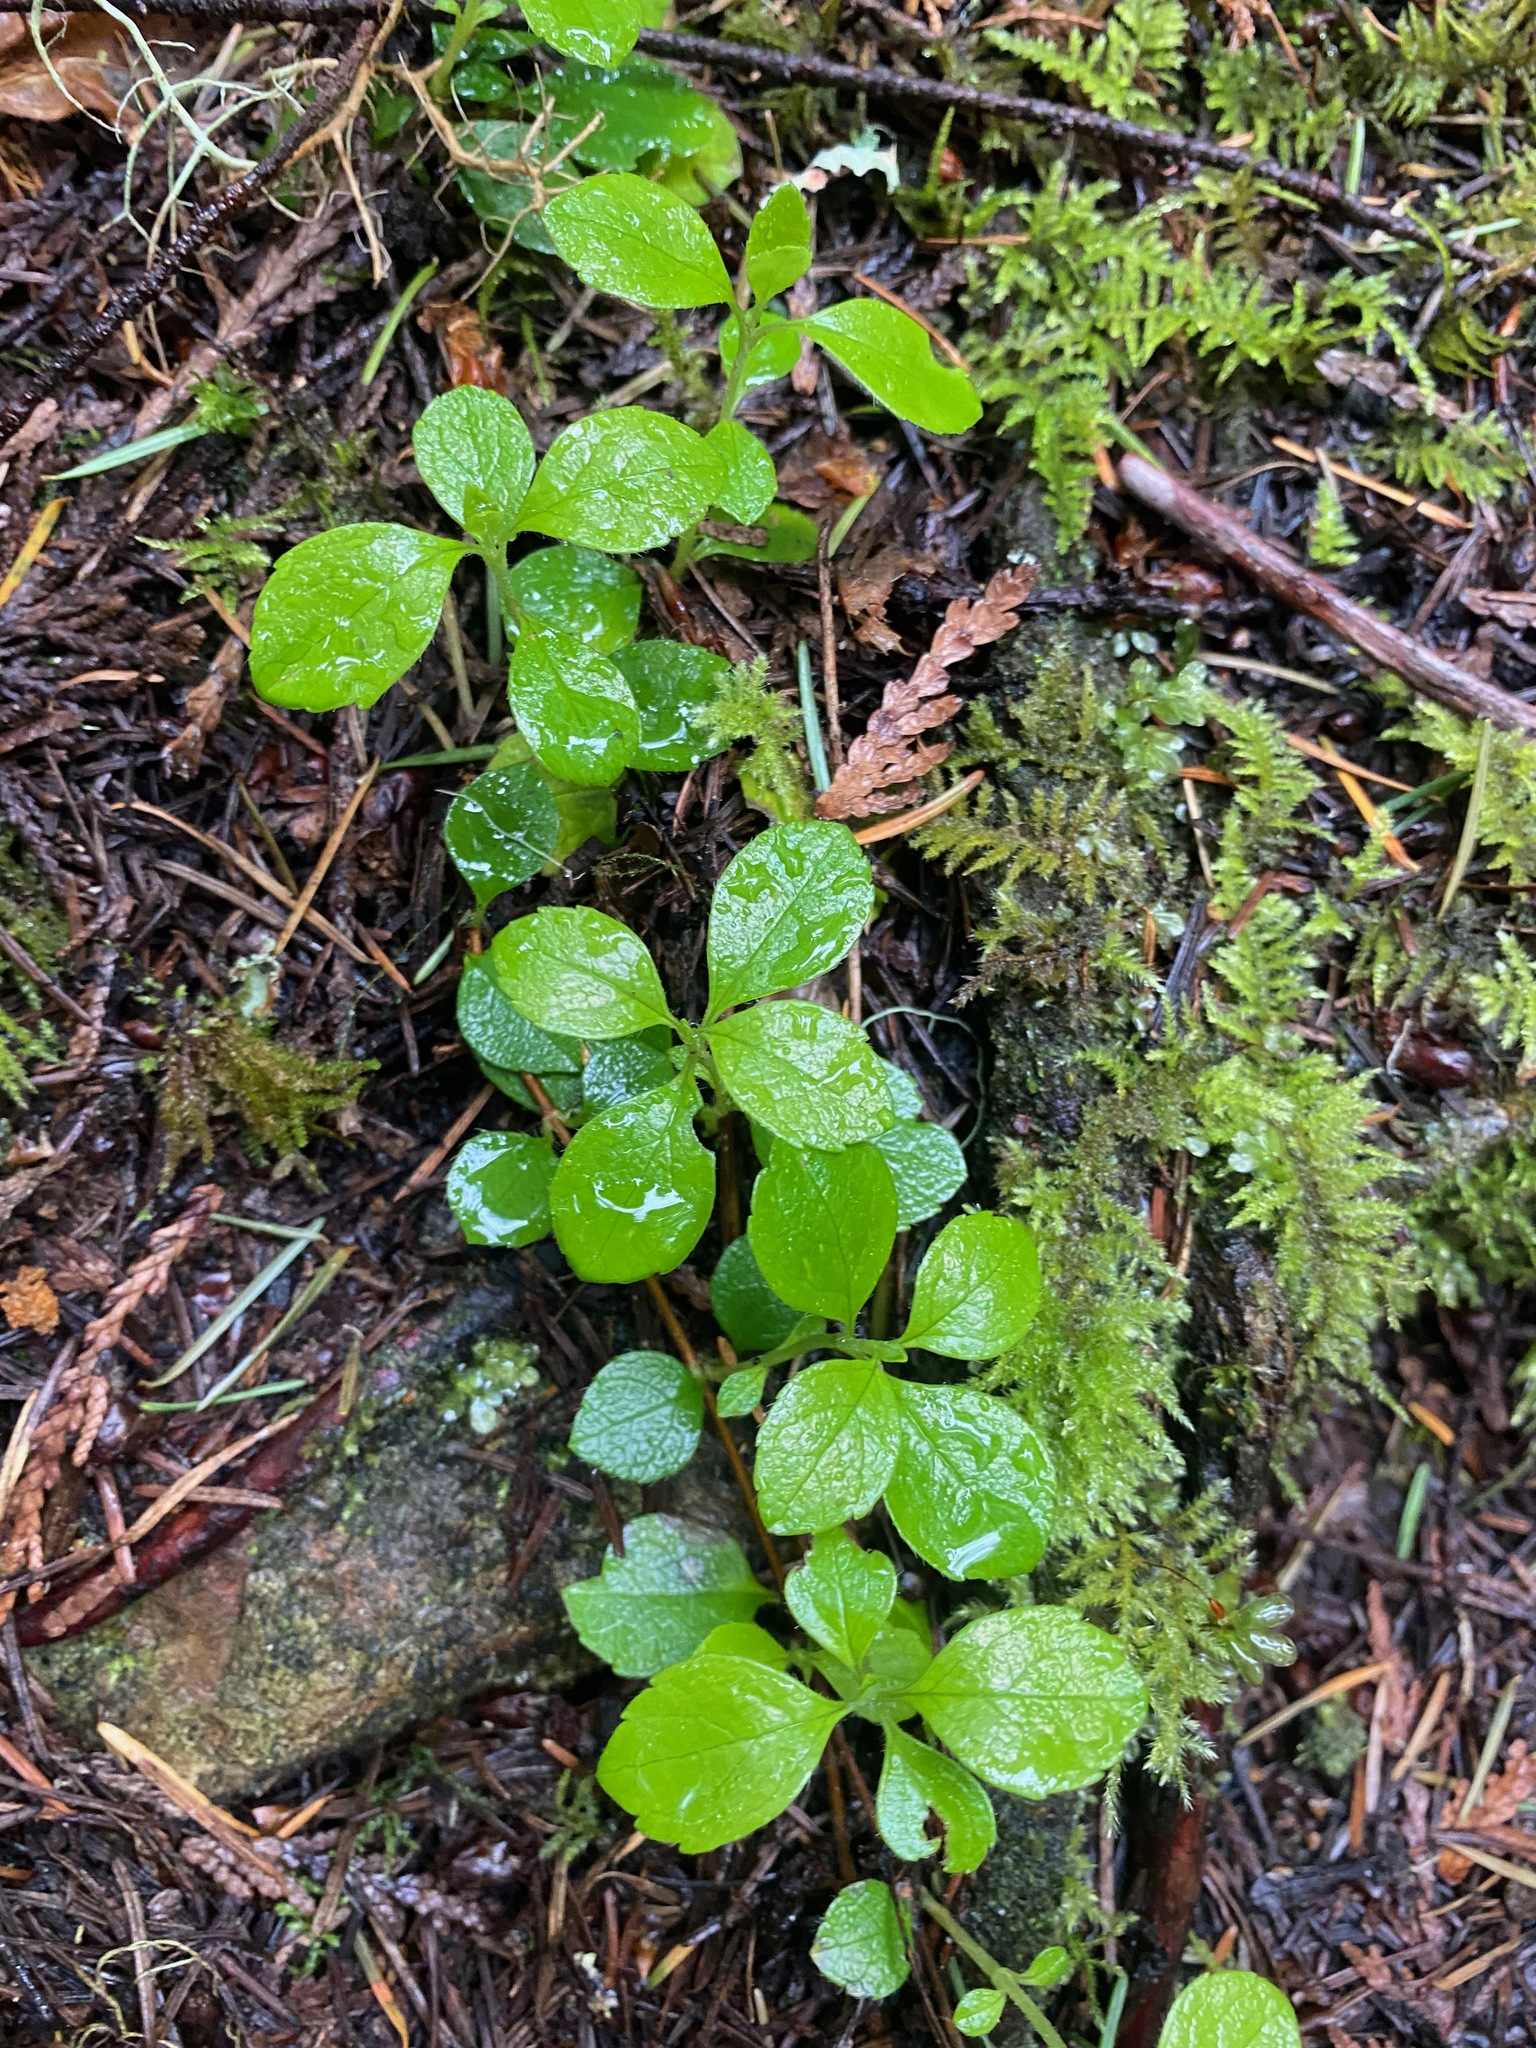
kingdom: Plantae
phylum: Tracheophyta
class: Magnoliopsida
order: Dipsacales
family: Caprifoliaceae
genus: Linnaea
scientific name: Linnaea borealis
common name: Twinflower
